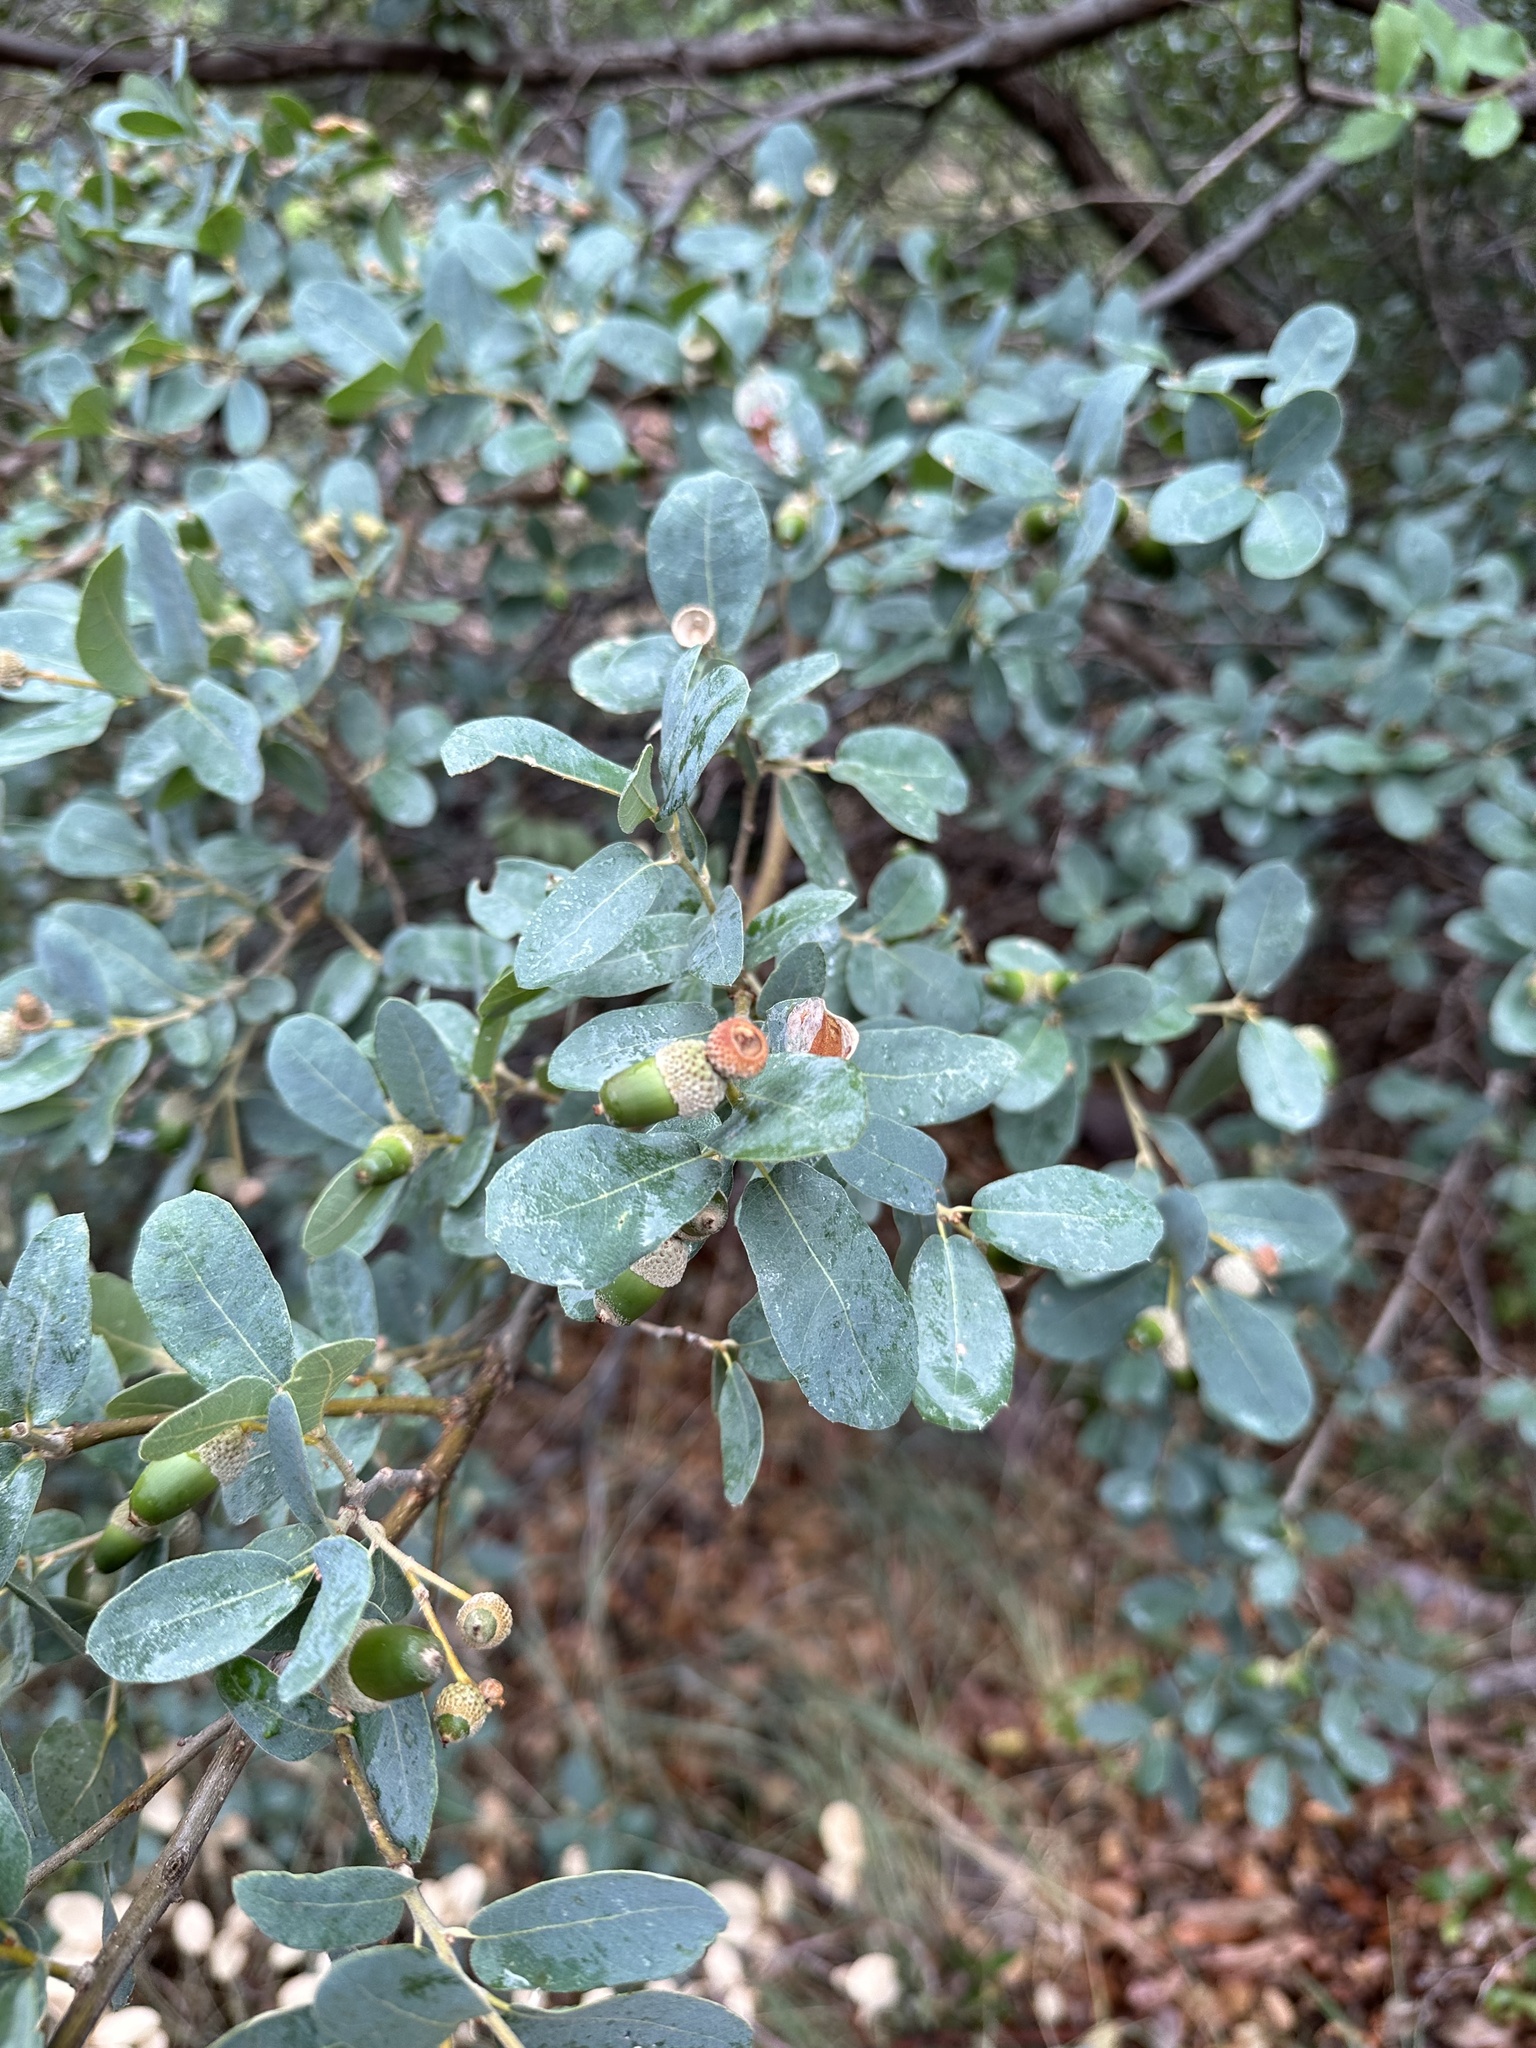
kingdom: Plantae
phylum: Tracheophyta
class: Magnoliopsida
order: Fagales
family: Fagaceae
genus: Quercus
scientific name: Quercus grisea
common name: Gray oak
